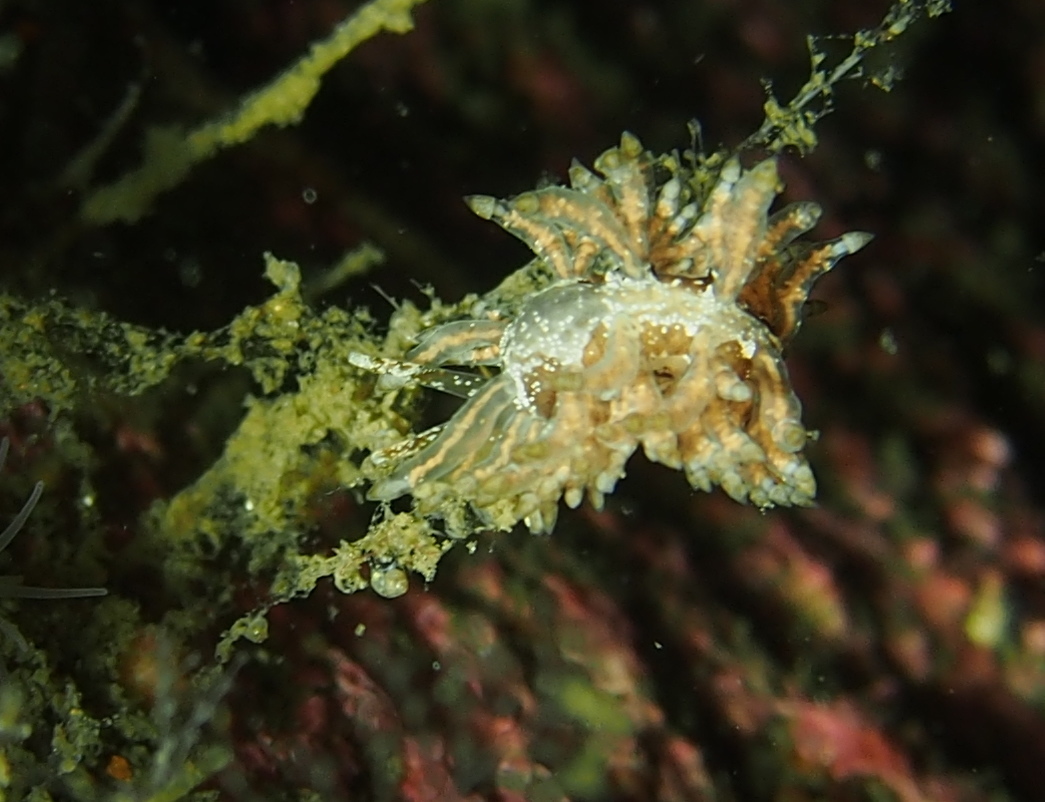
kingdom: Animalia
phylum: Mollusca
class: Gastropoda
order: Nudibranchia
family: Eubranchidae
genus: Eubranchus
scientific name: Eubranchus vittatus
